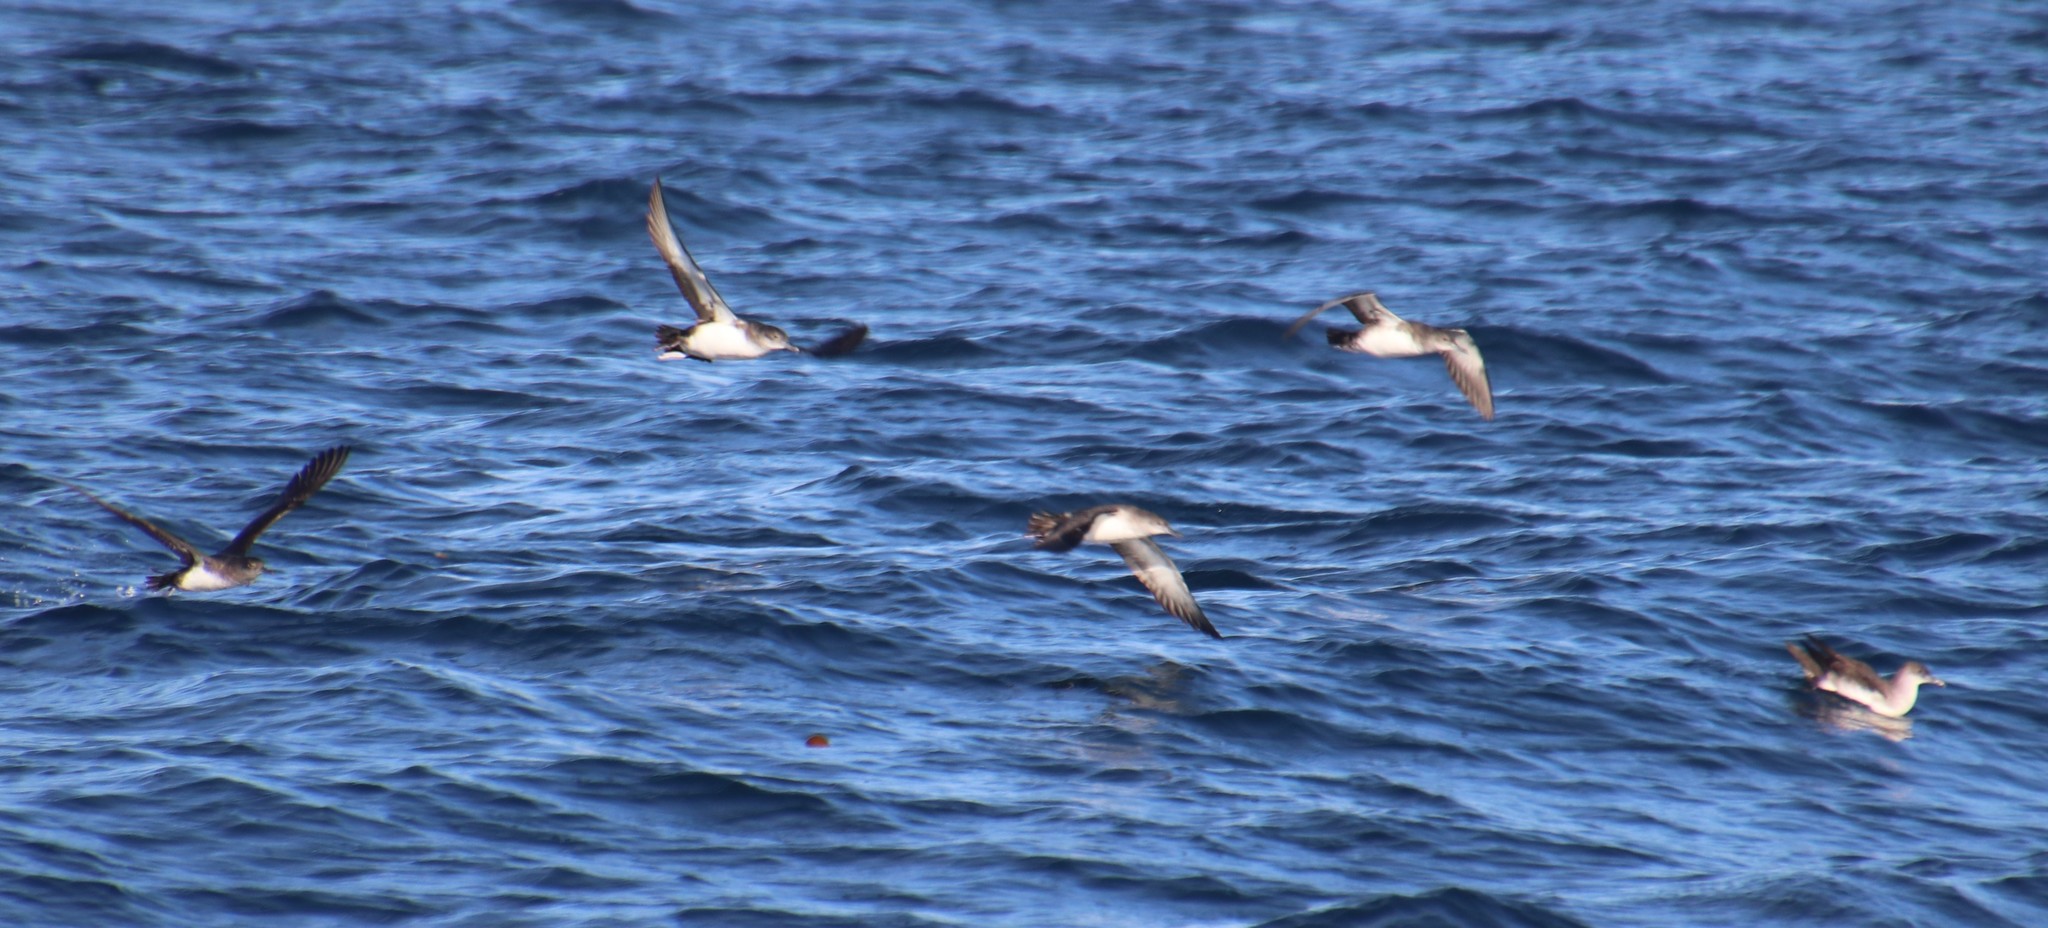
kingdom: Animalia
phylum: Chordata
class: Aves
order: Procellariiformes
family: Procellariidae
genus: Puffinus
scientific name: Puffinus opisthomelas
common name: Black-vented shearwater
